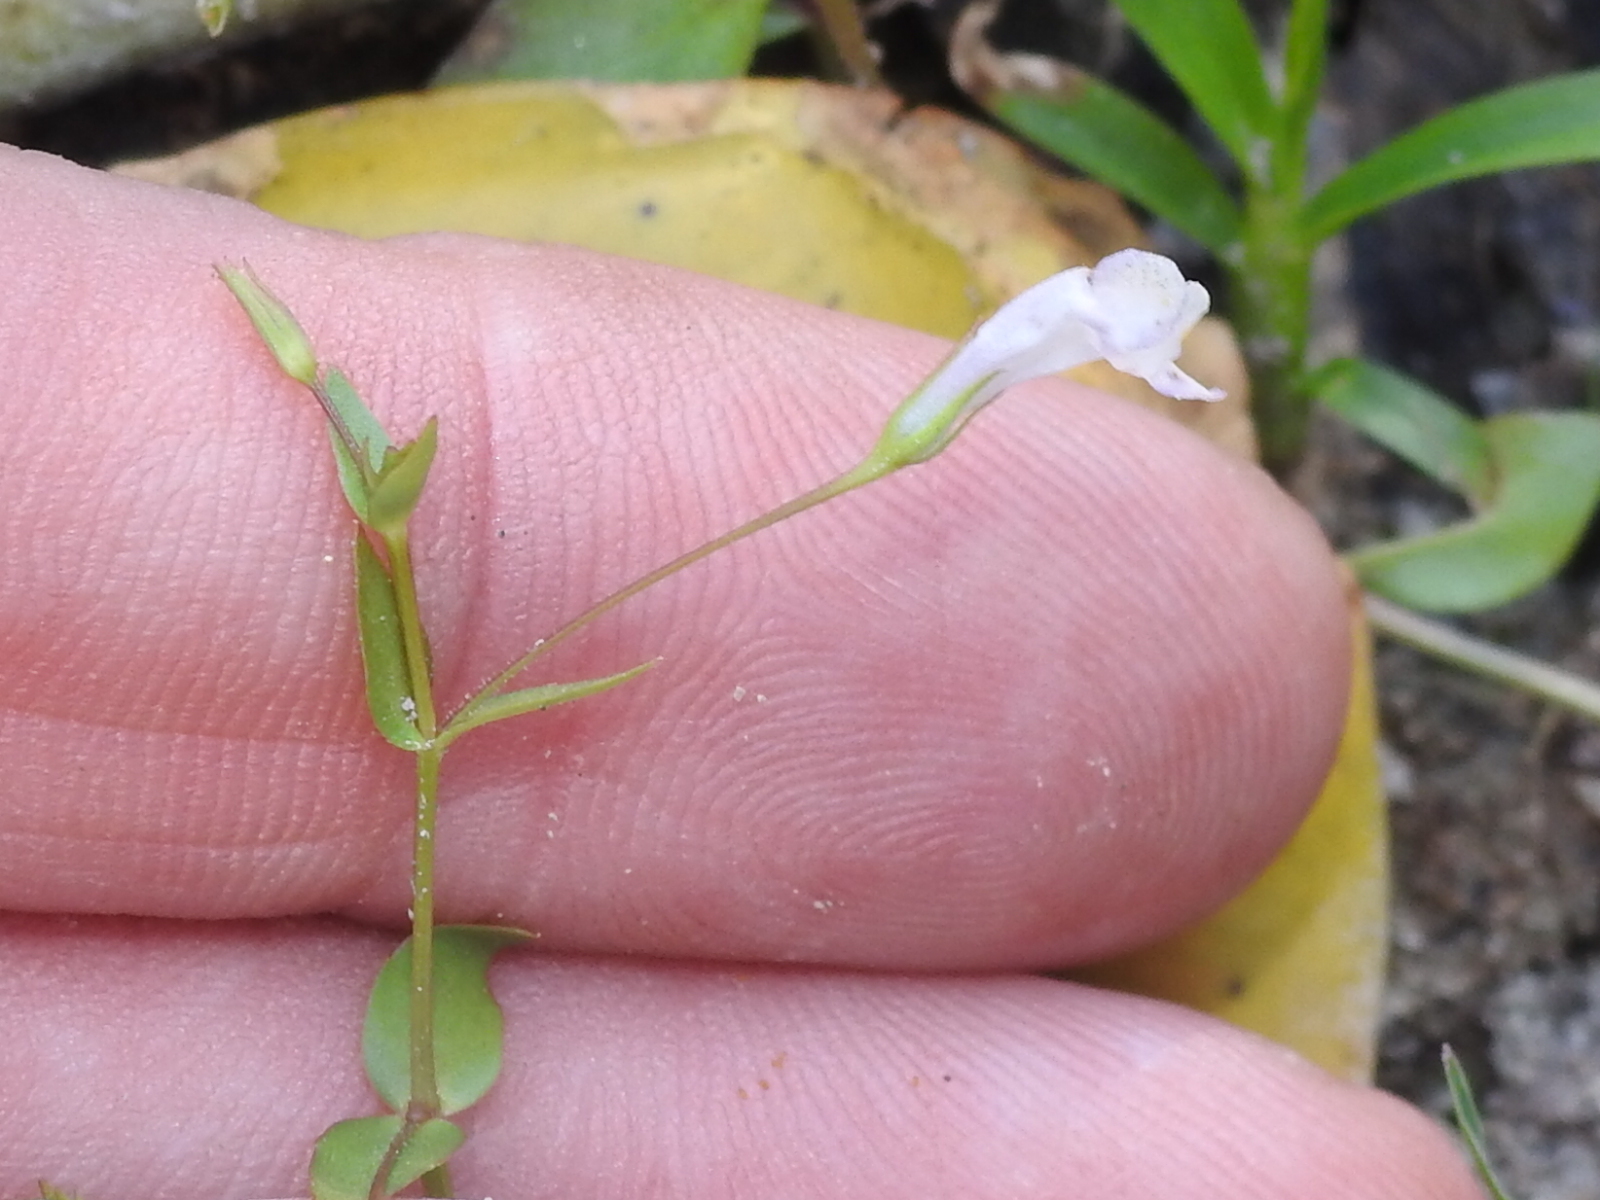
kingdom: Plantae
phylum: Tracheophyta
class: Magnoliopsida
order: Lamiales
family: Linderniaceae
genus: Lindernia
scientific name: Lindernia dubia
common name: Annual false pimpernel
